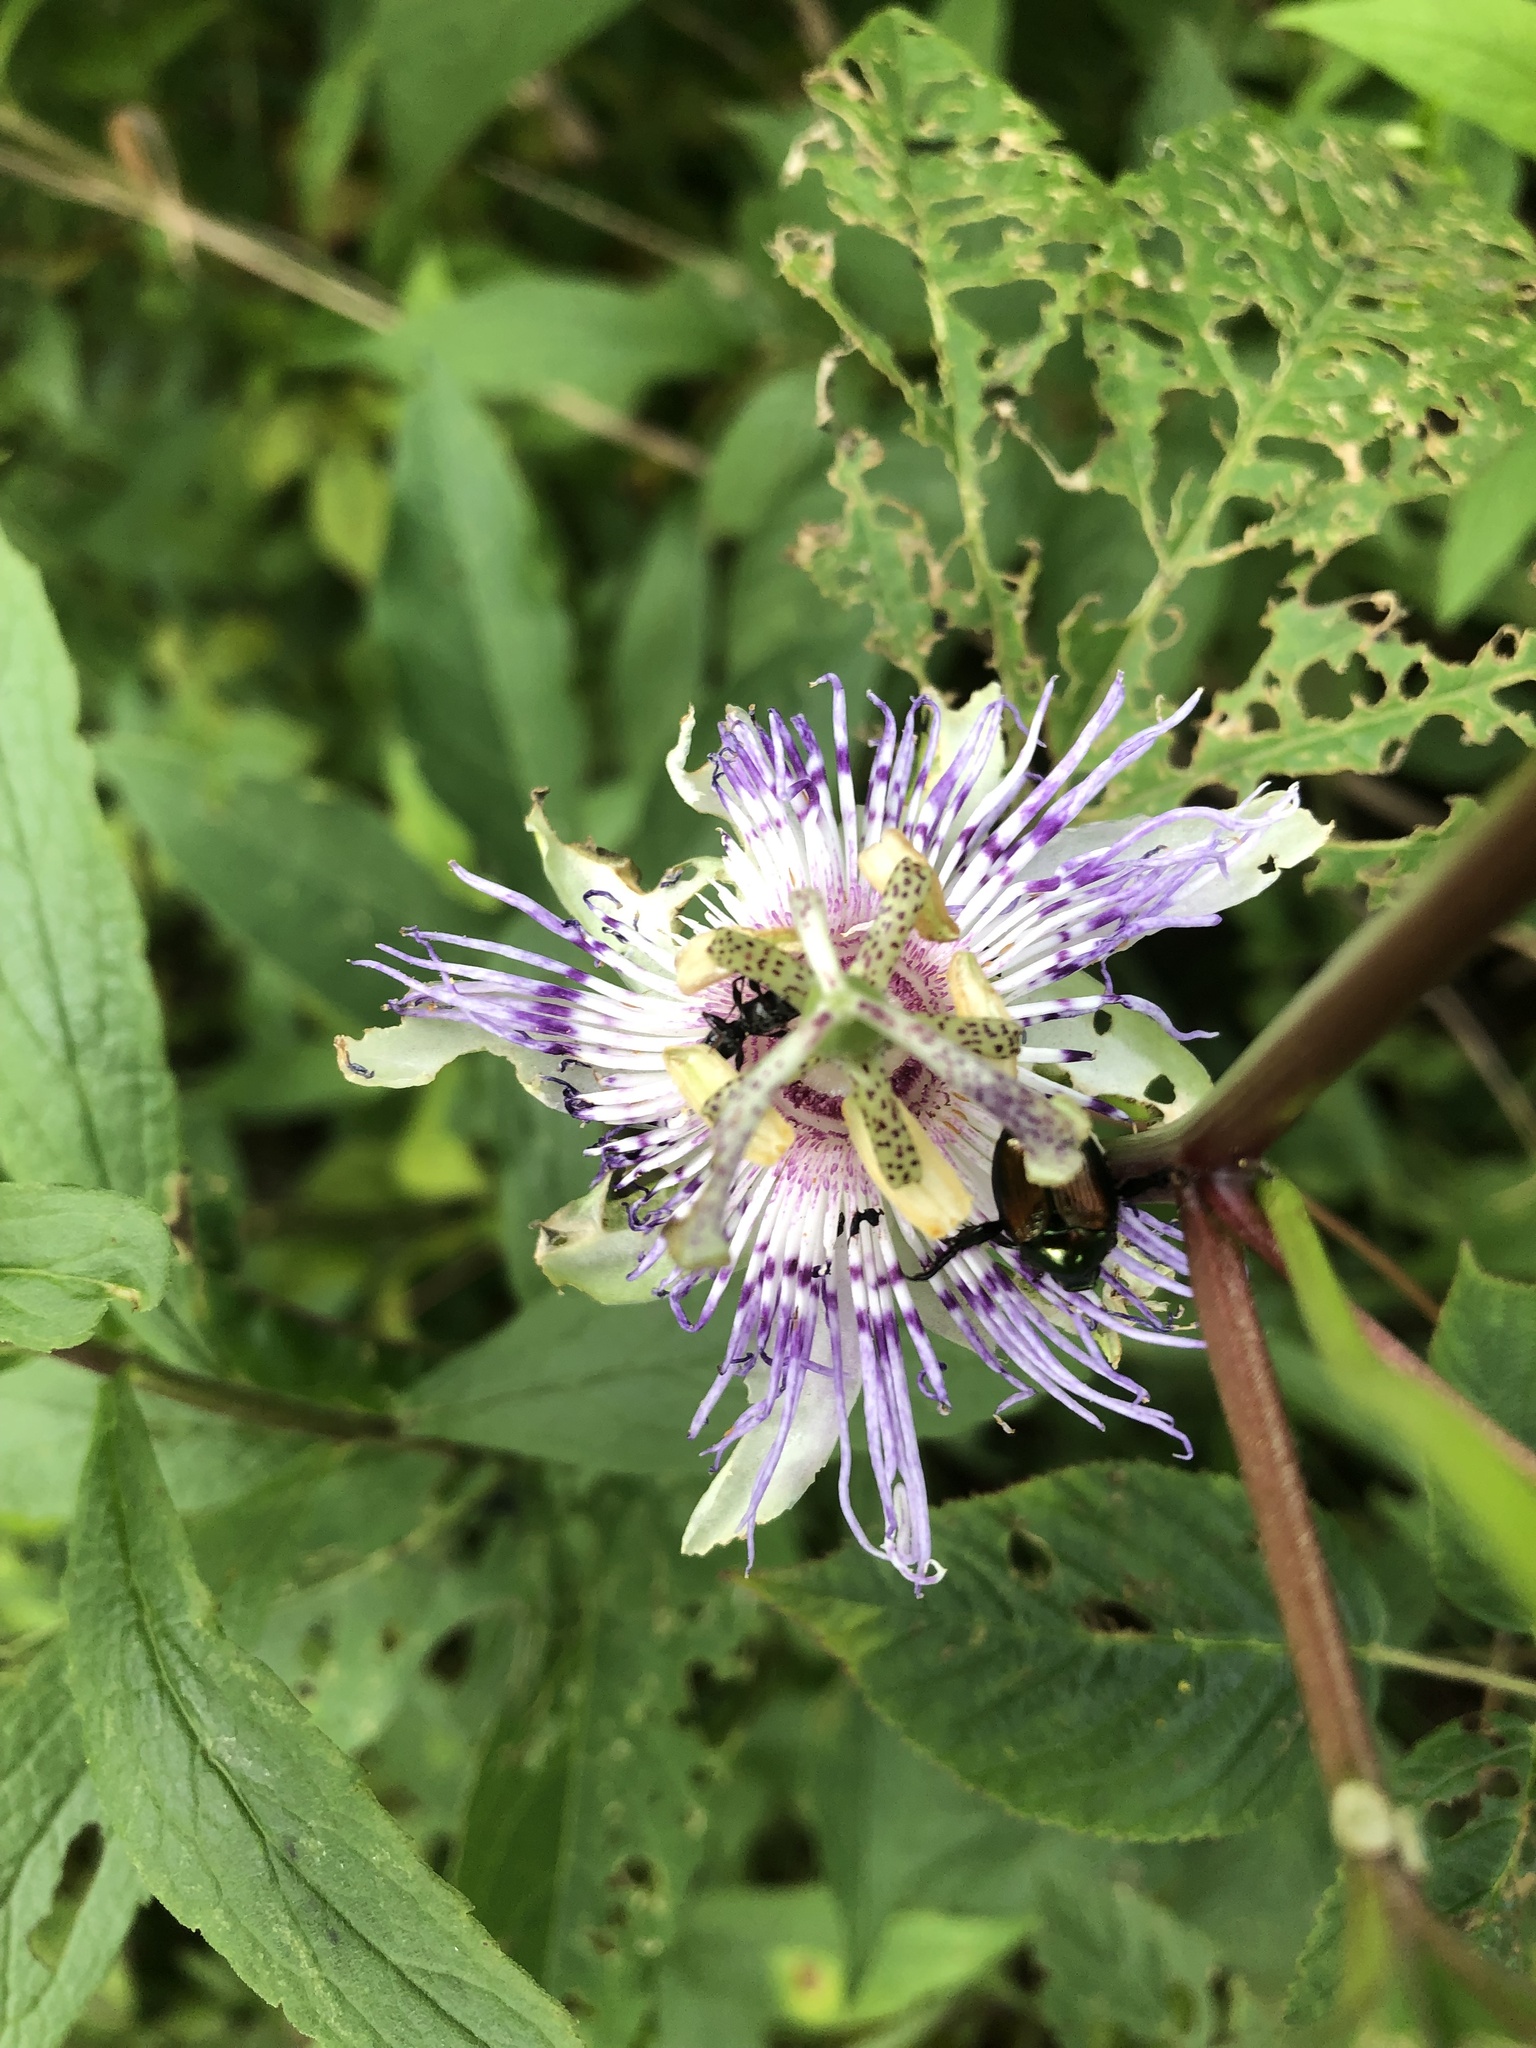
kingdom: Plantae
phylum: Tracheophyta
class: Magnoliopsida
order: Malpighiales
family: Passifloraceae
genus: Passiflora
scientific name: Passiflora incarnata
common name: Apricot-vine
